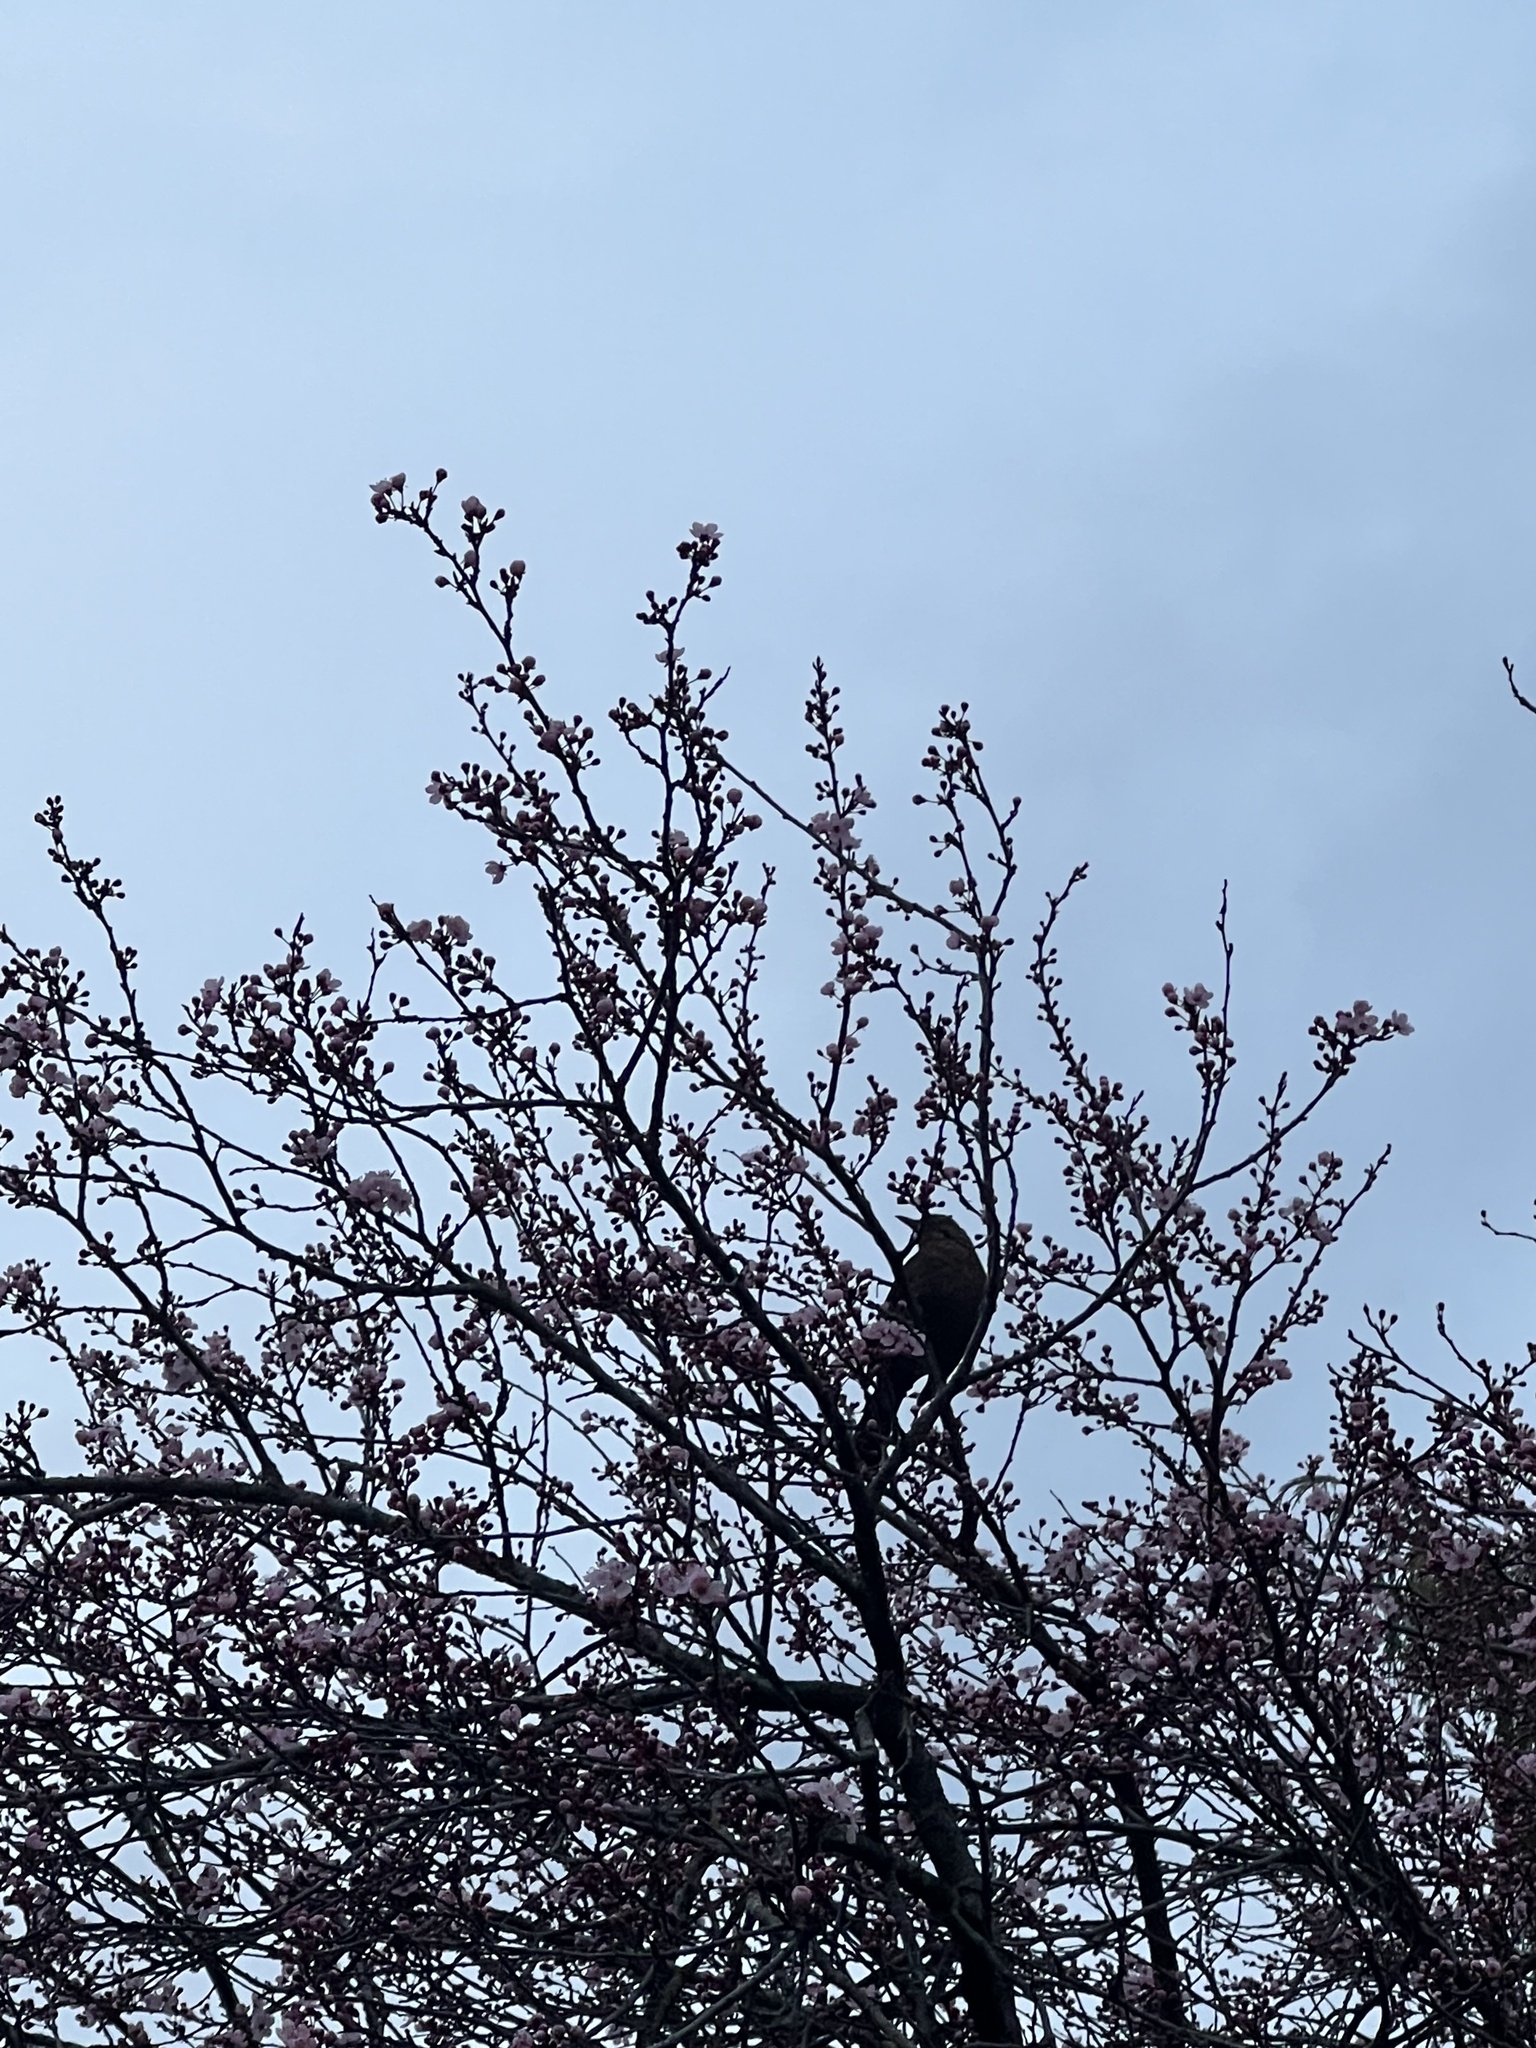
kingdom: Animalia
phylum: Chordata
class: Aves
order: Passeriformes
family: Turdidae
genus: Turdus
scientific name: Turdus merula
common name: Common blackbird
